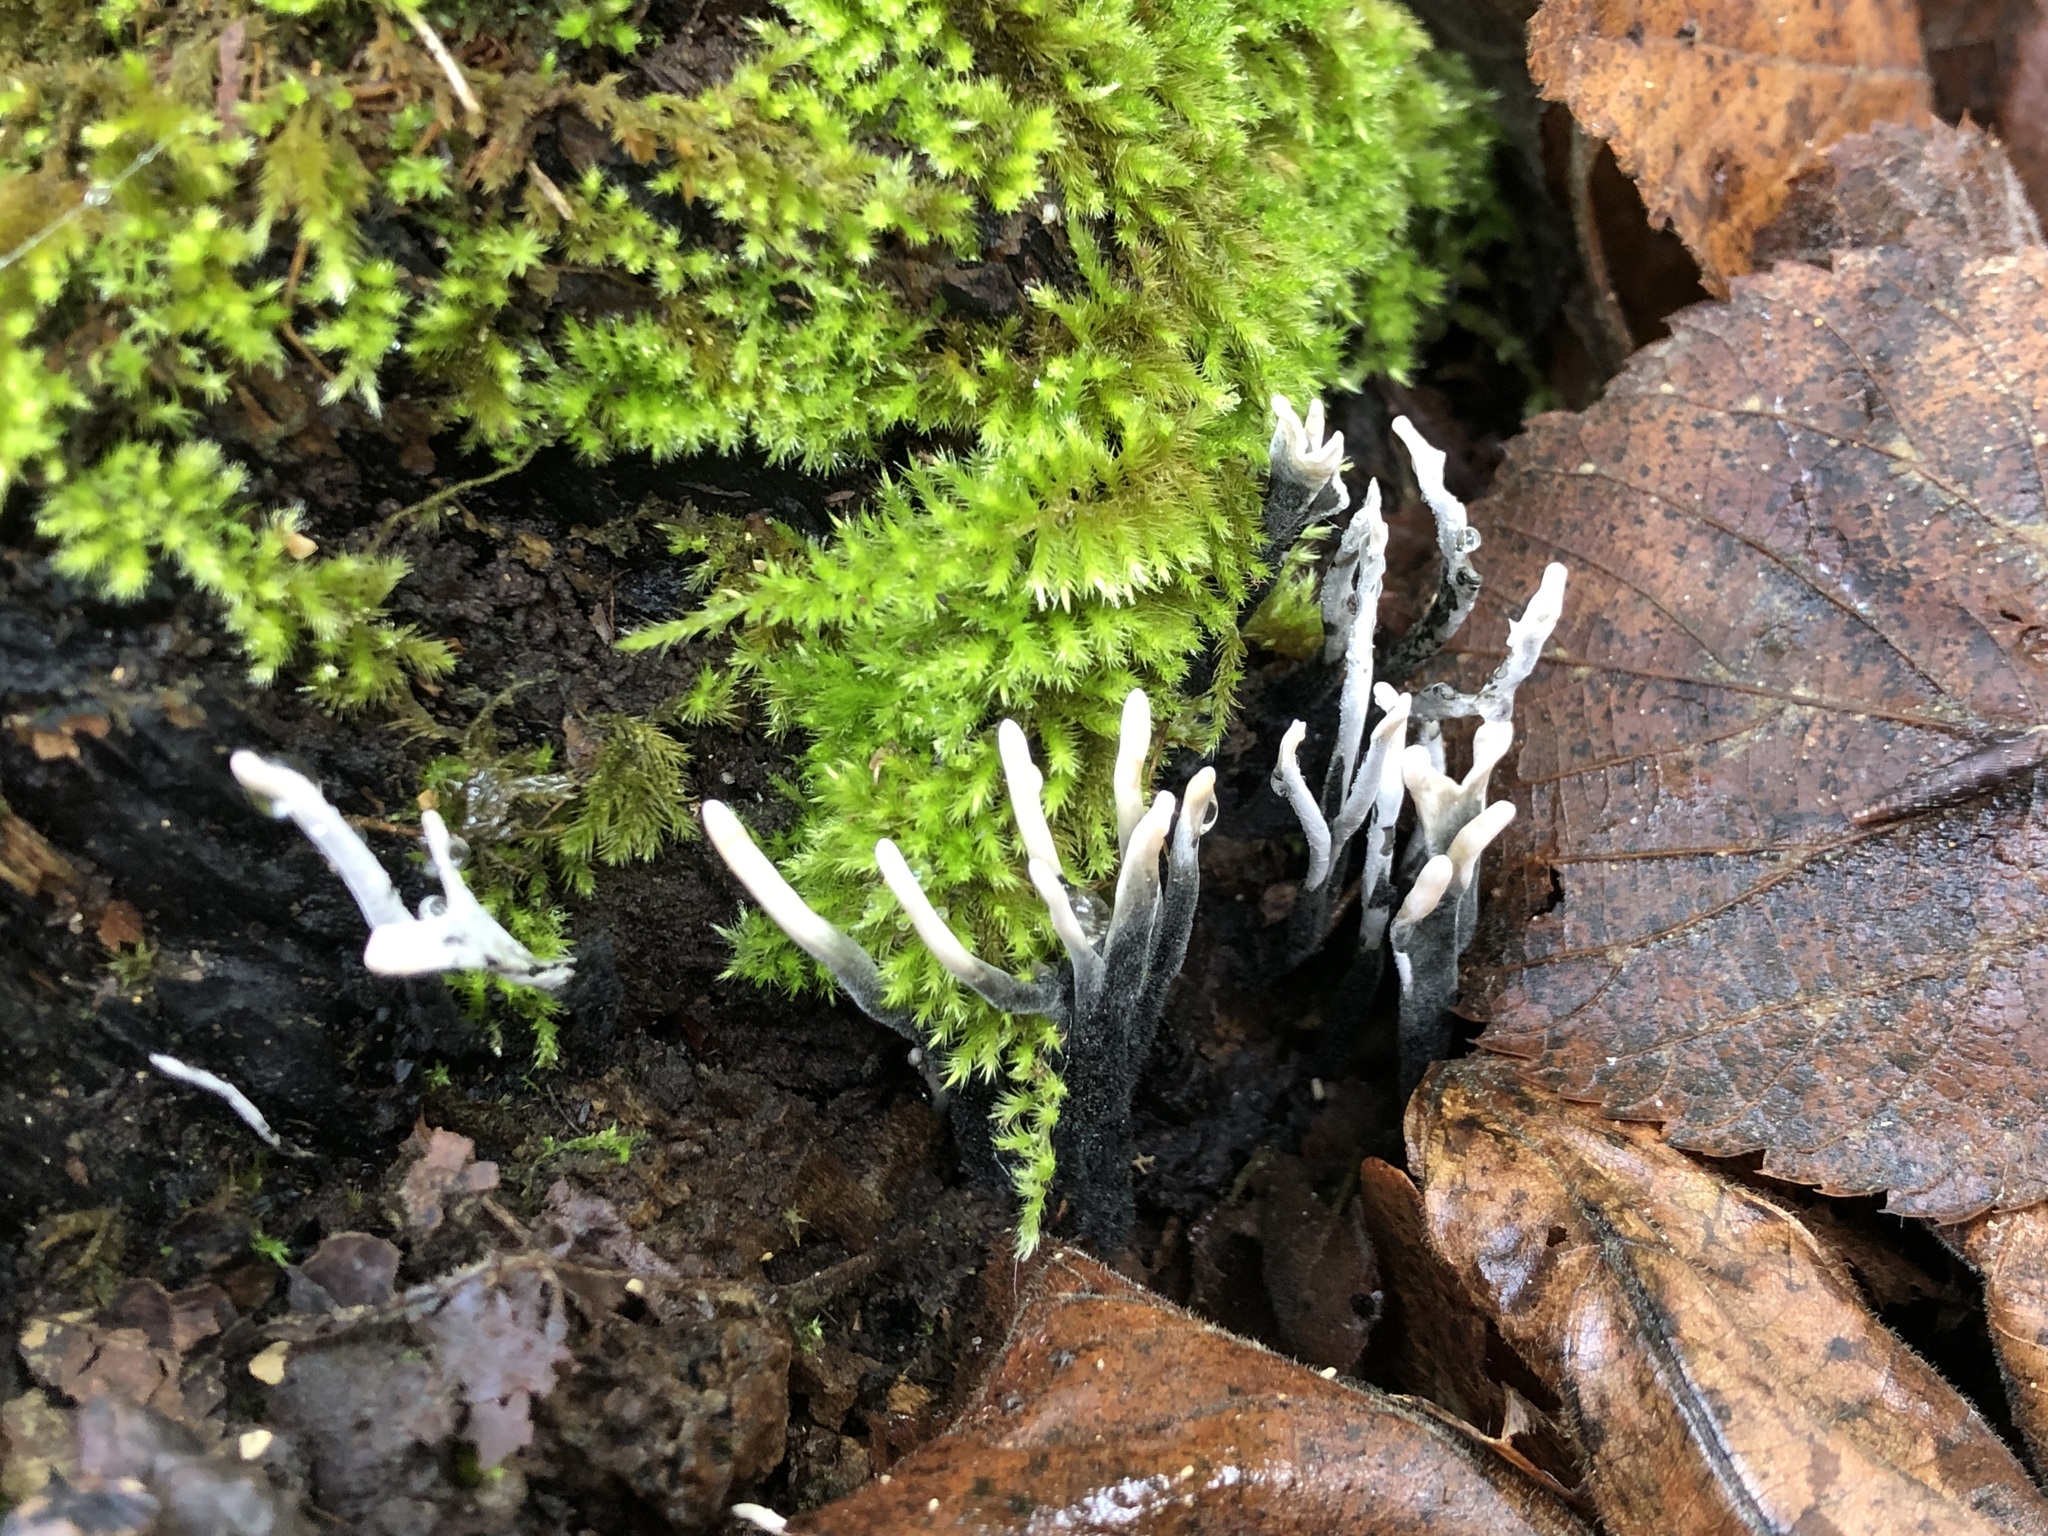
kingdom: Fungi
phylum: Ascomycota
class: Sordariomycetes
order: Xylariales
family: Xylariaceae
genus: Xylaria
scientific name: Xylaria hypoxylon
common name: Candle-snuff fungus
